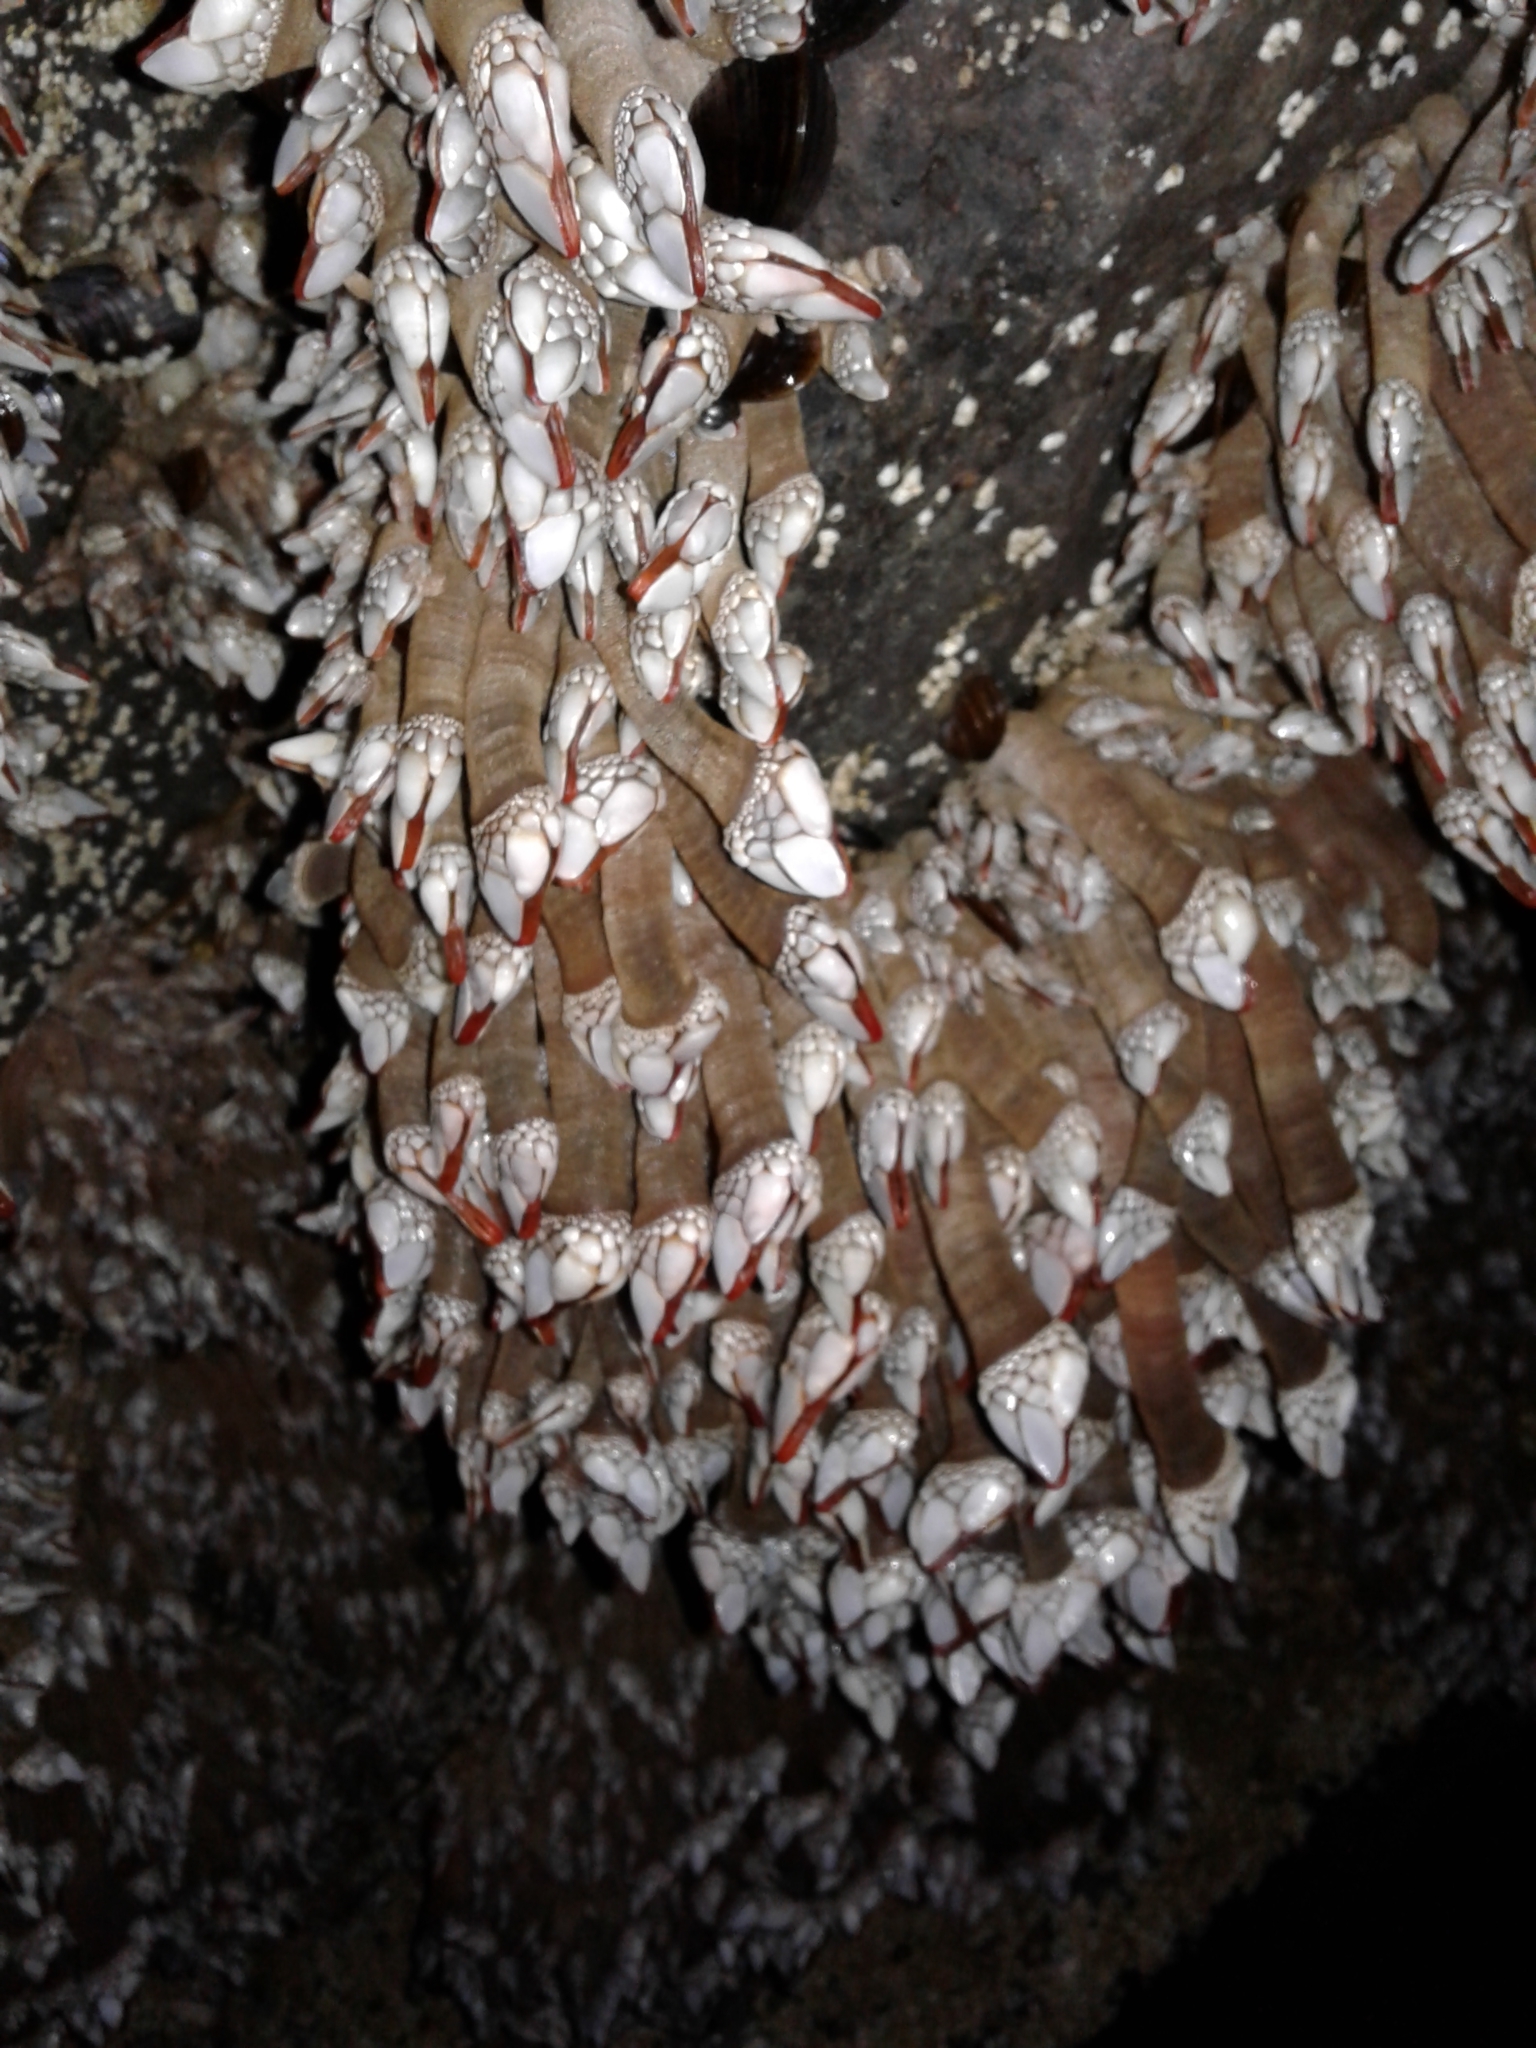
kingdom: Animalia
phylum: Arthropoda
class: Maxillopoda
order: Pedunculata
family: Pollicipedidae
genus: Pollicipes
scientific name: Pollicipes polymerus
